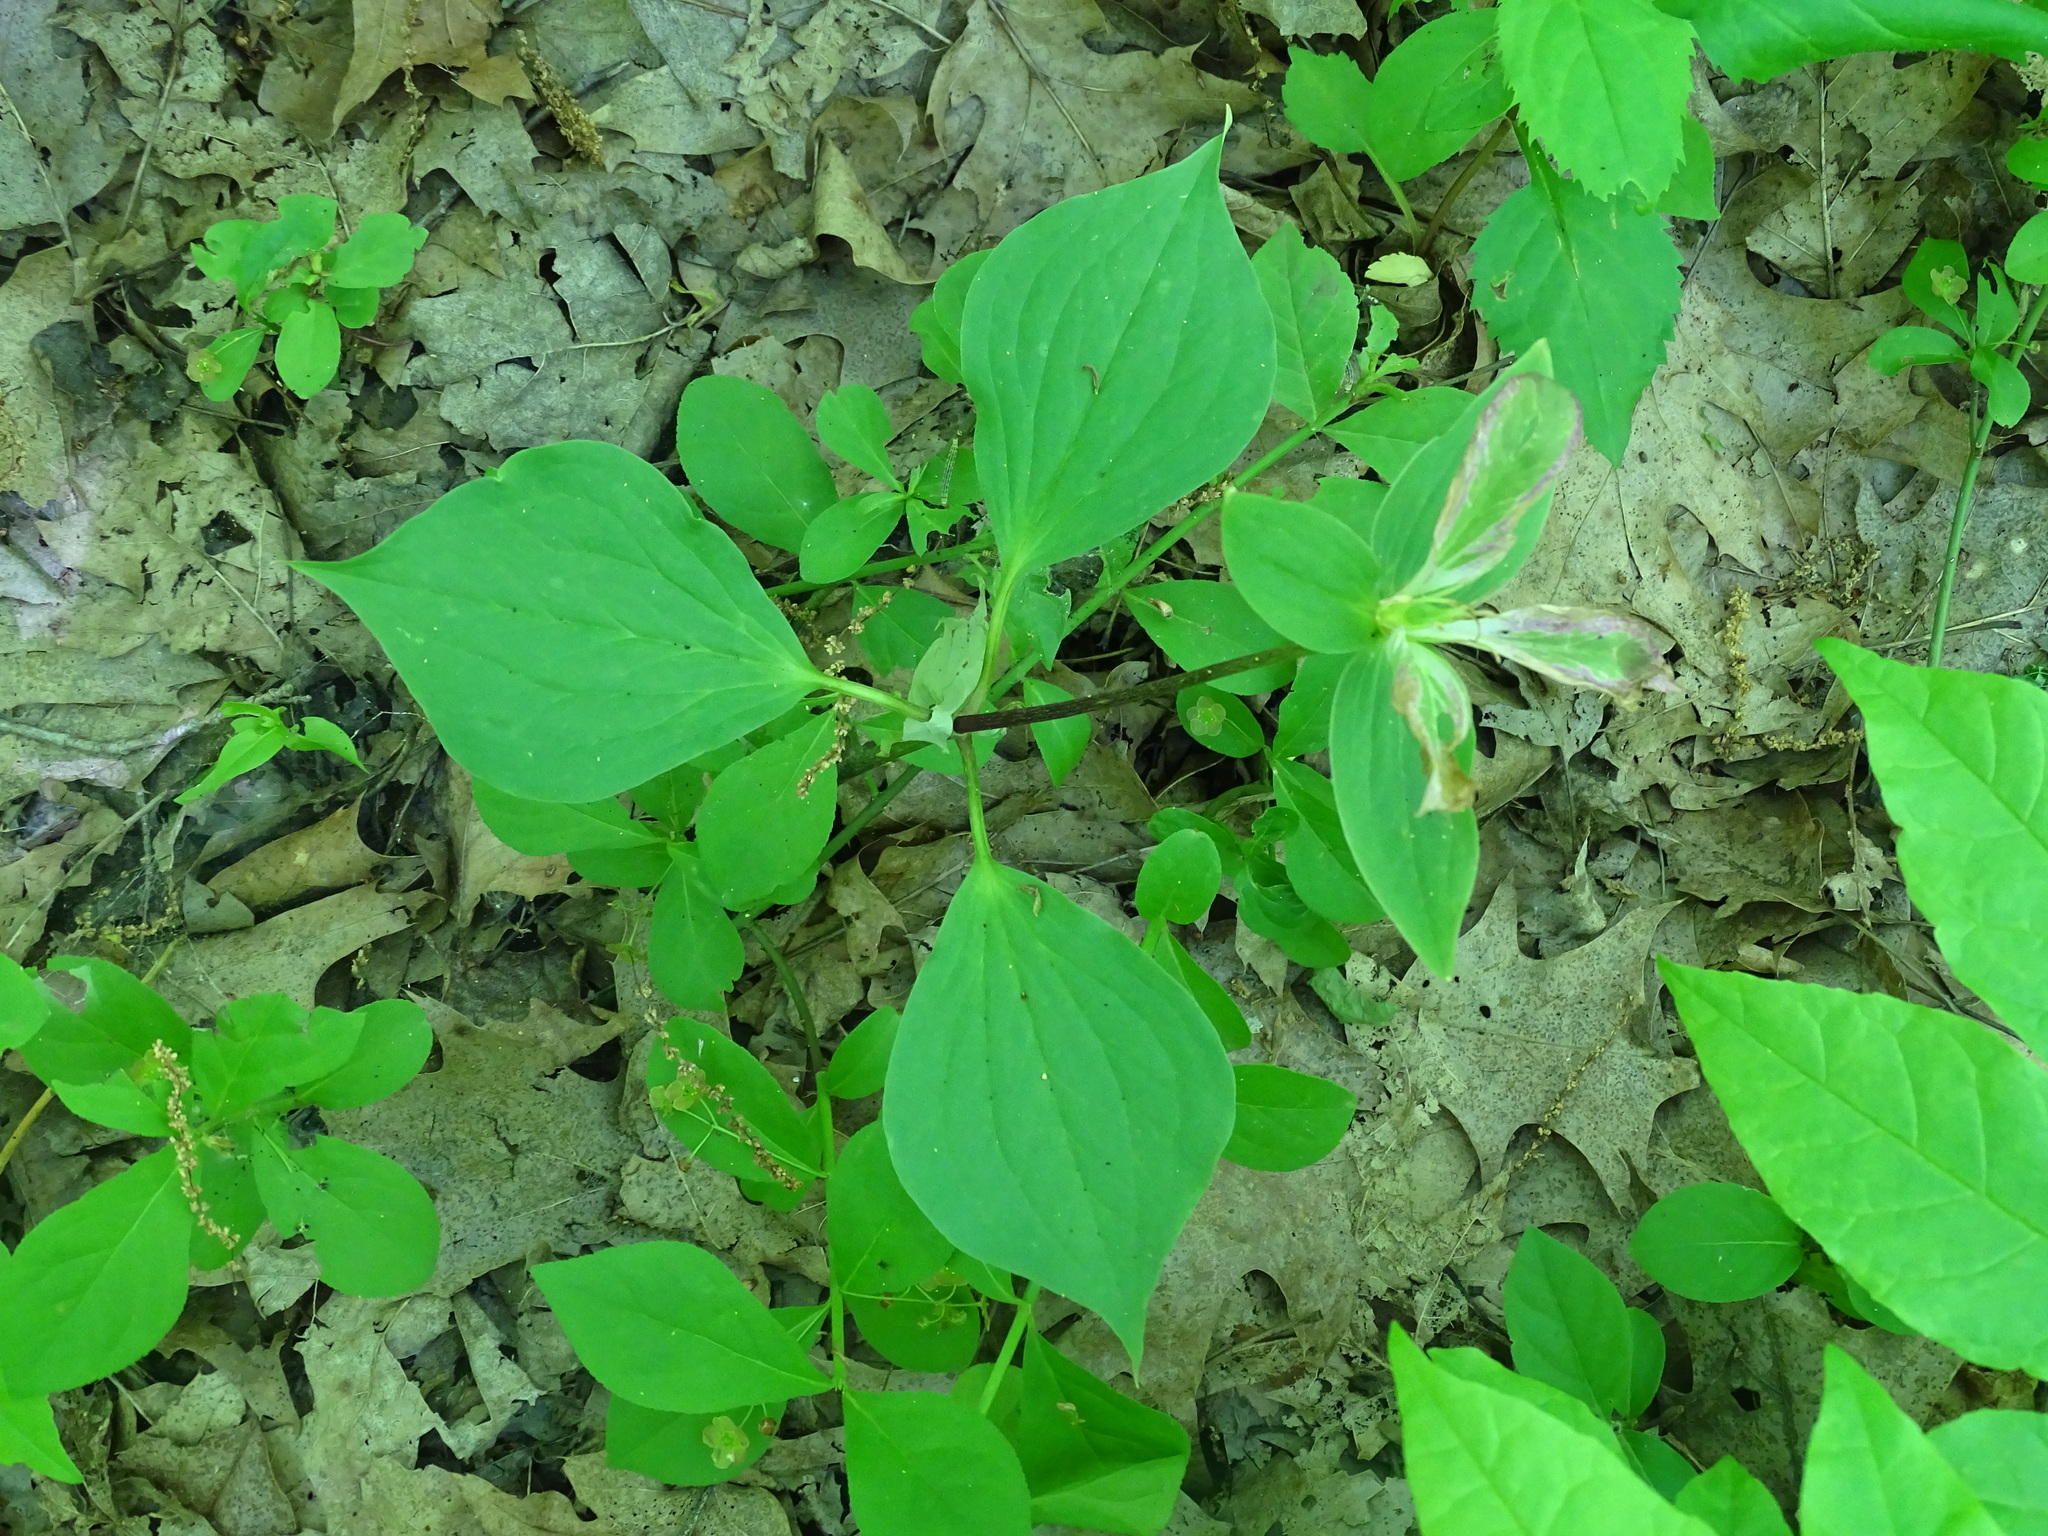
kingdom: Plantae
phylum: Tracheophyta
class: Liliopsida
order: Liliales
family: Melanthiaceae
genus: Trillium
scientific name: Trillium grandiflorum
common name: Great white trillium
